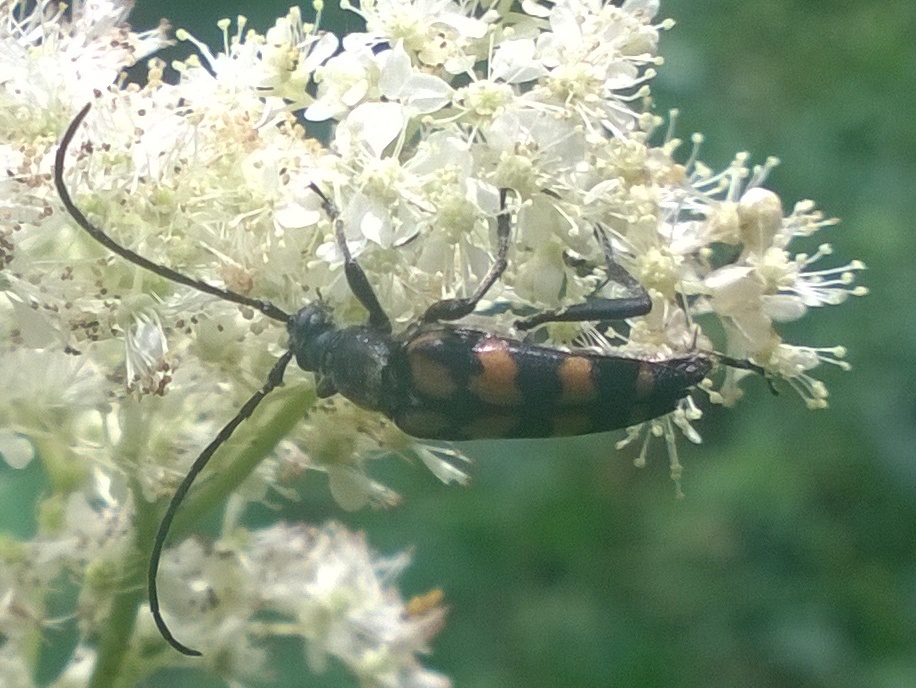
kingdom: Animalia
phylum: Arthropoda
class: Insecta
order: Coleoptera
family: Cerambycidae
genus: Leptura
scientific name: Leptura quadrifasciata
